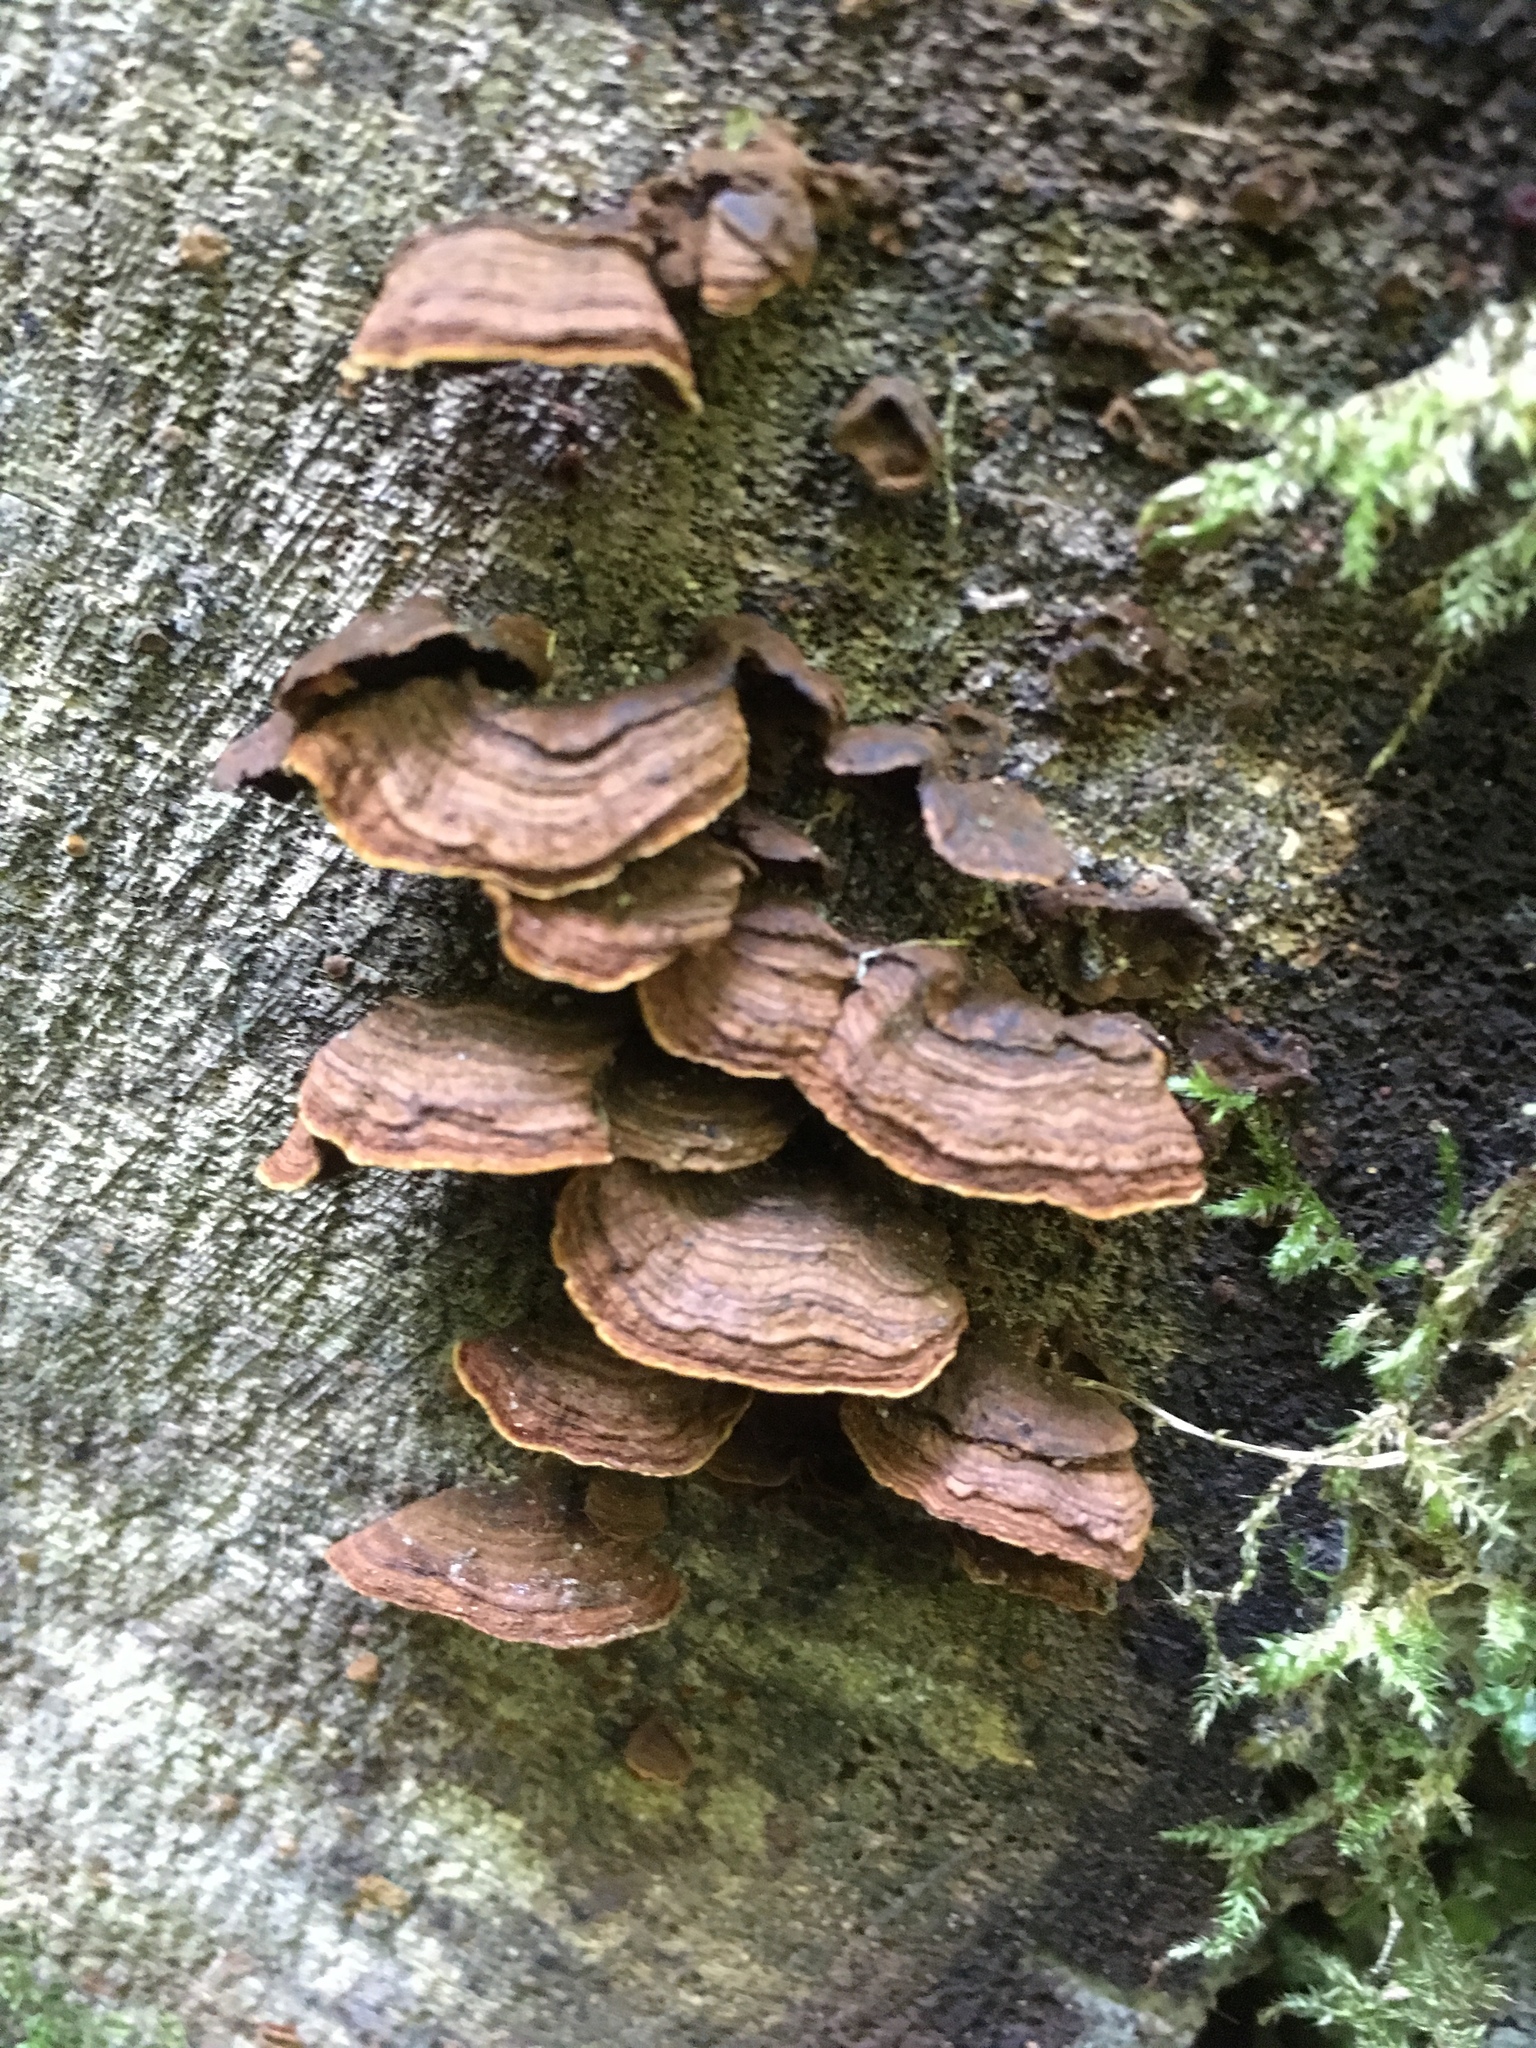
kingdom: Fungi
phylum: Basidiomycota
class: Agaricomycetes
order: Hymenochaetales
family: Hymenochaetaceae
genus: Hymenochaete
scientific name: Hymenochaete rubiginosa
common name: Oak curtain crust
